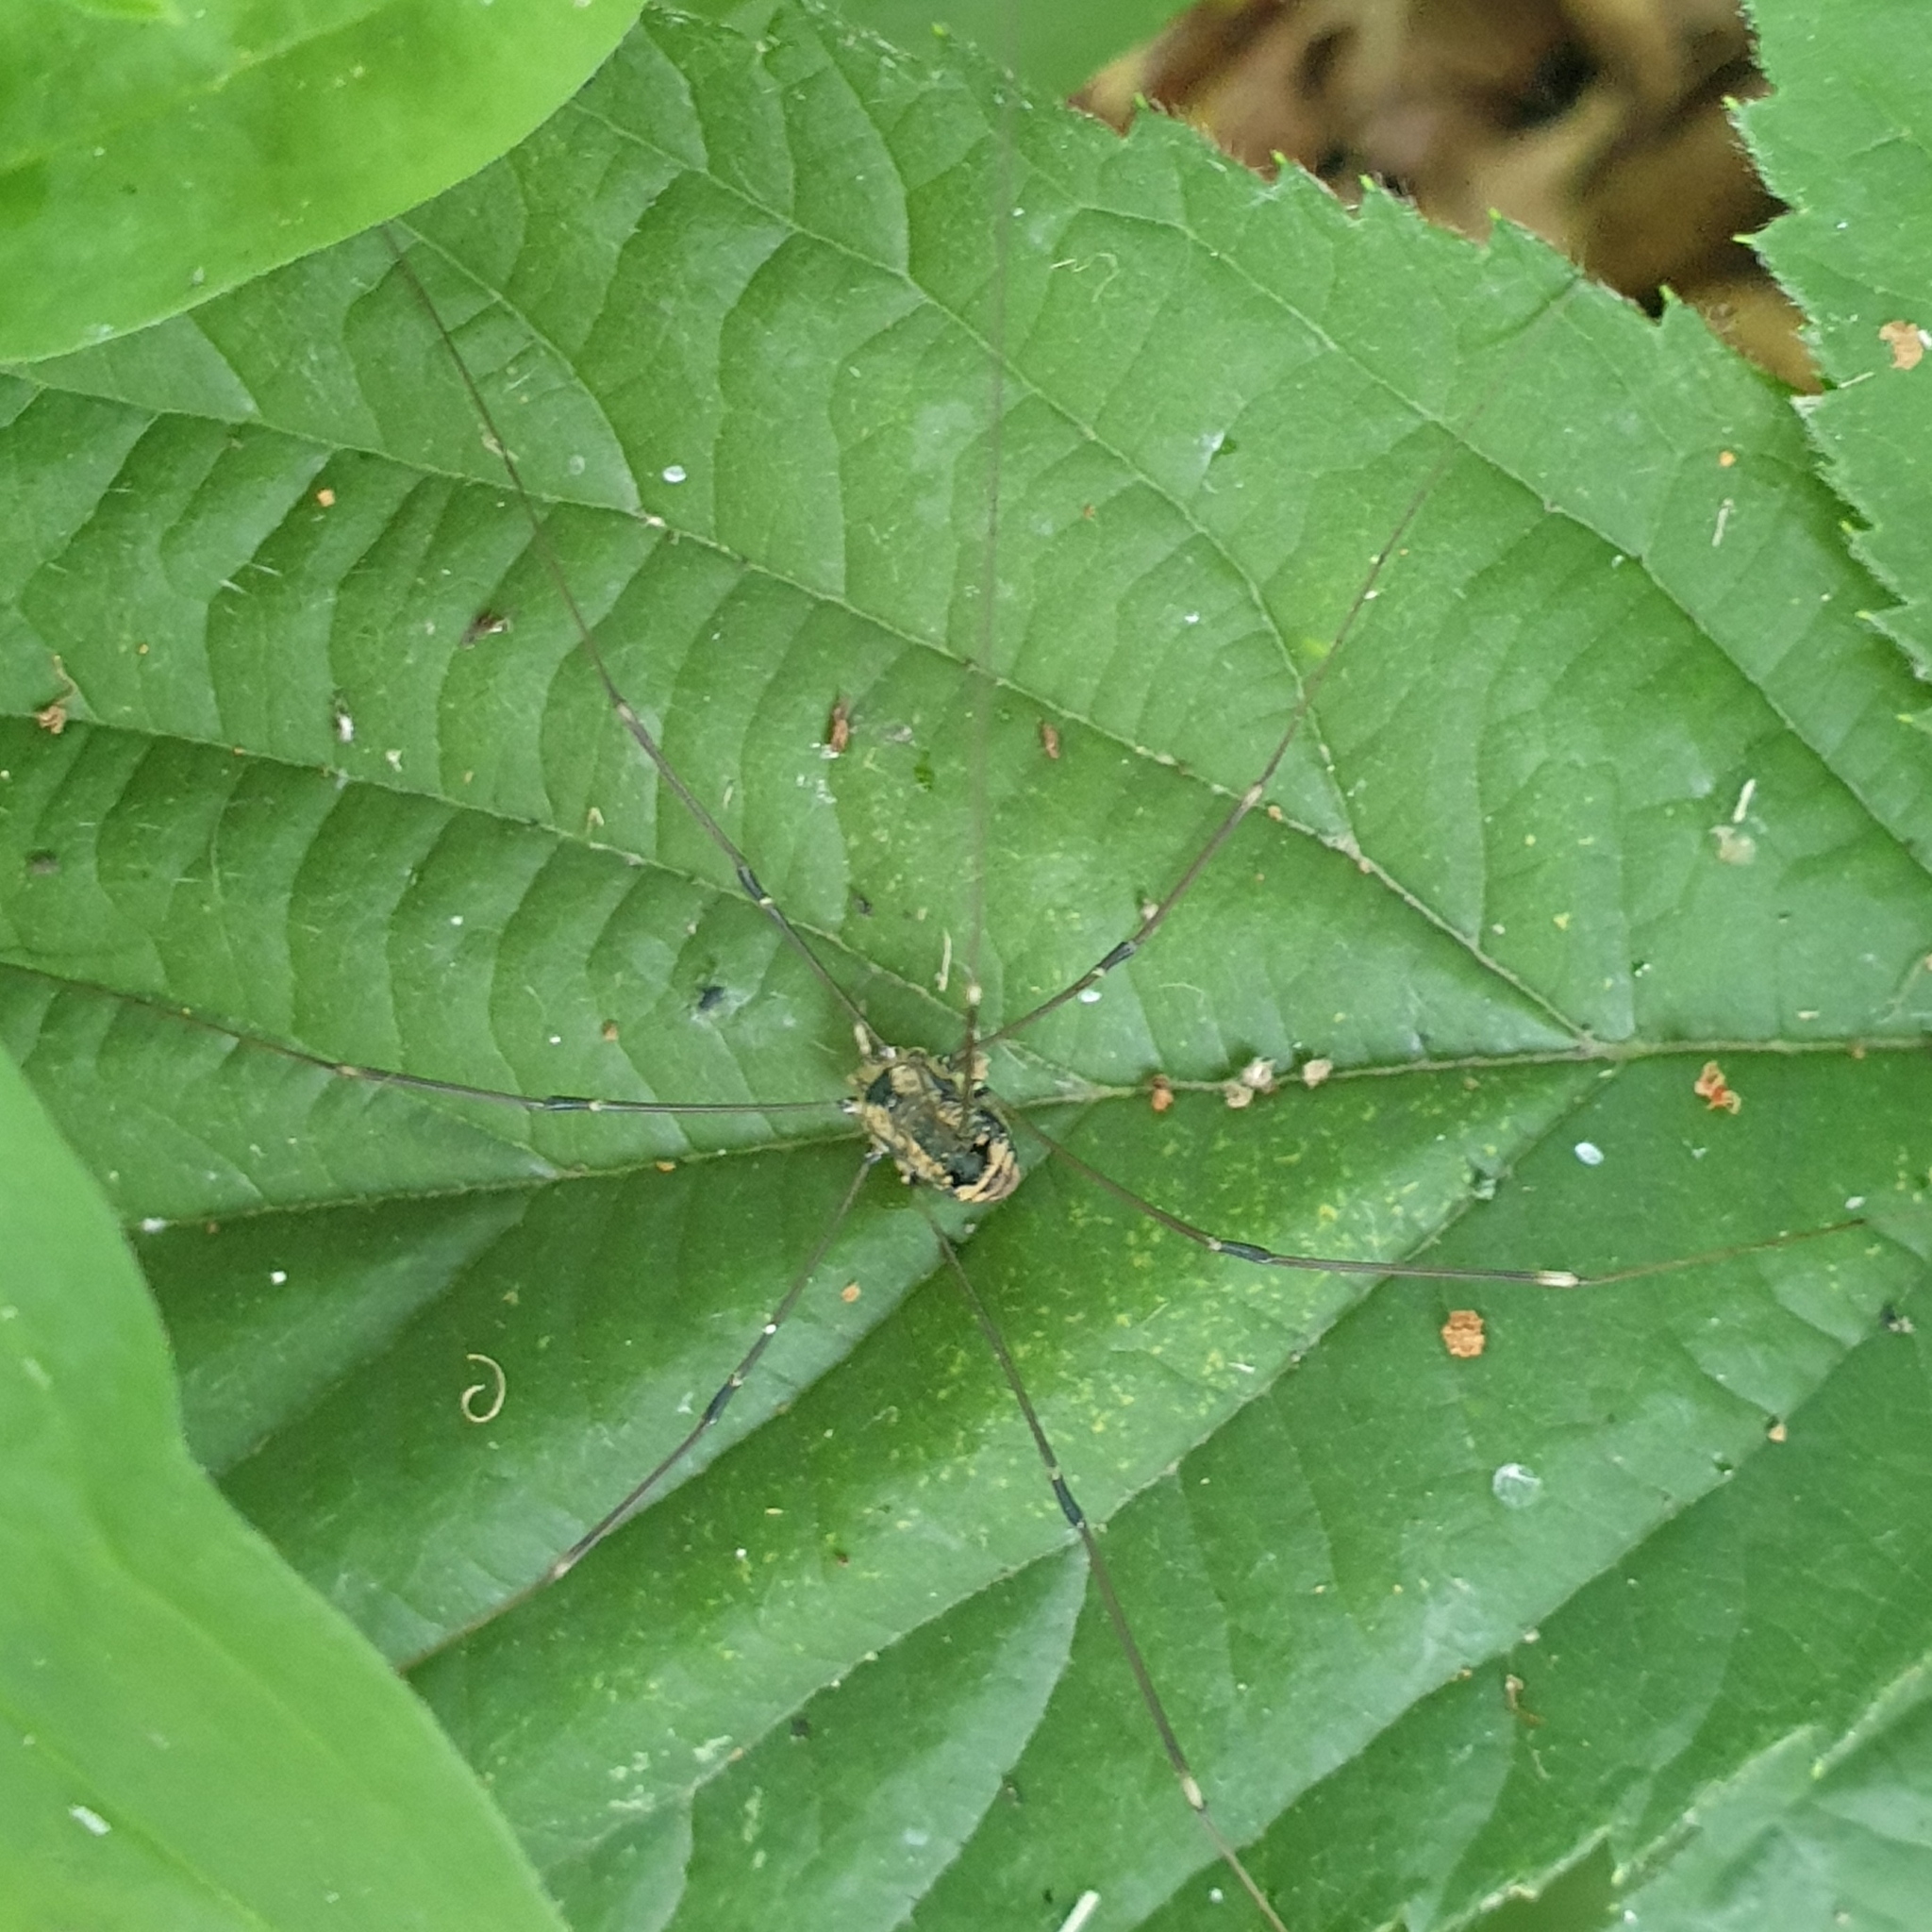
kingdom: Animalia
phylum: Arthropoda
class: Arachnida
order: Opiliones
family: Sclerosomatidae
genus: Leiobunum
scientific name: Leiobunum rotundum
